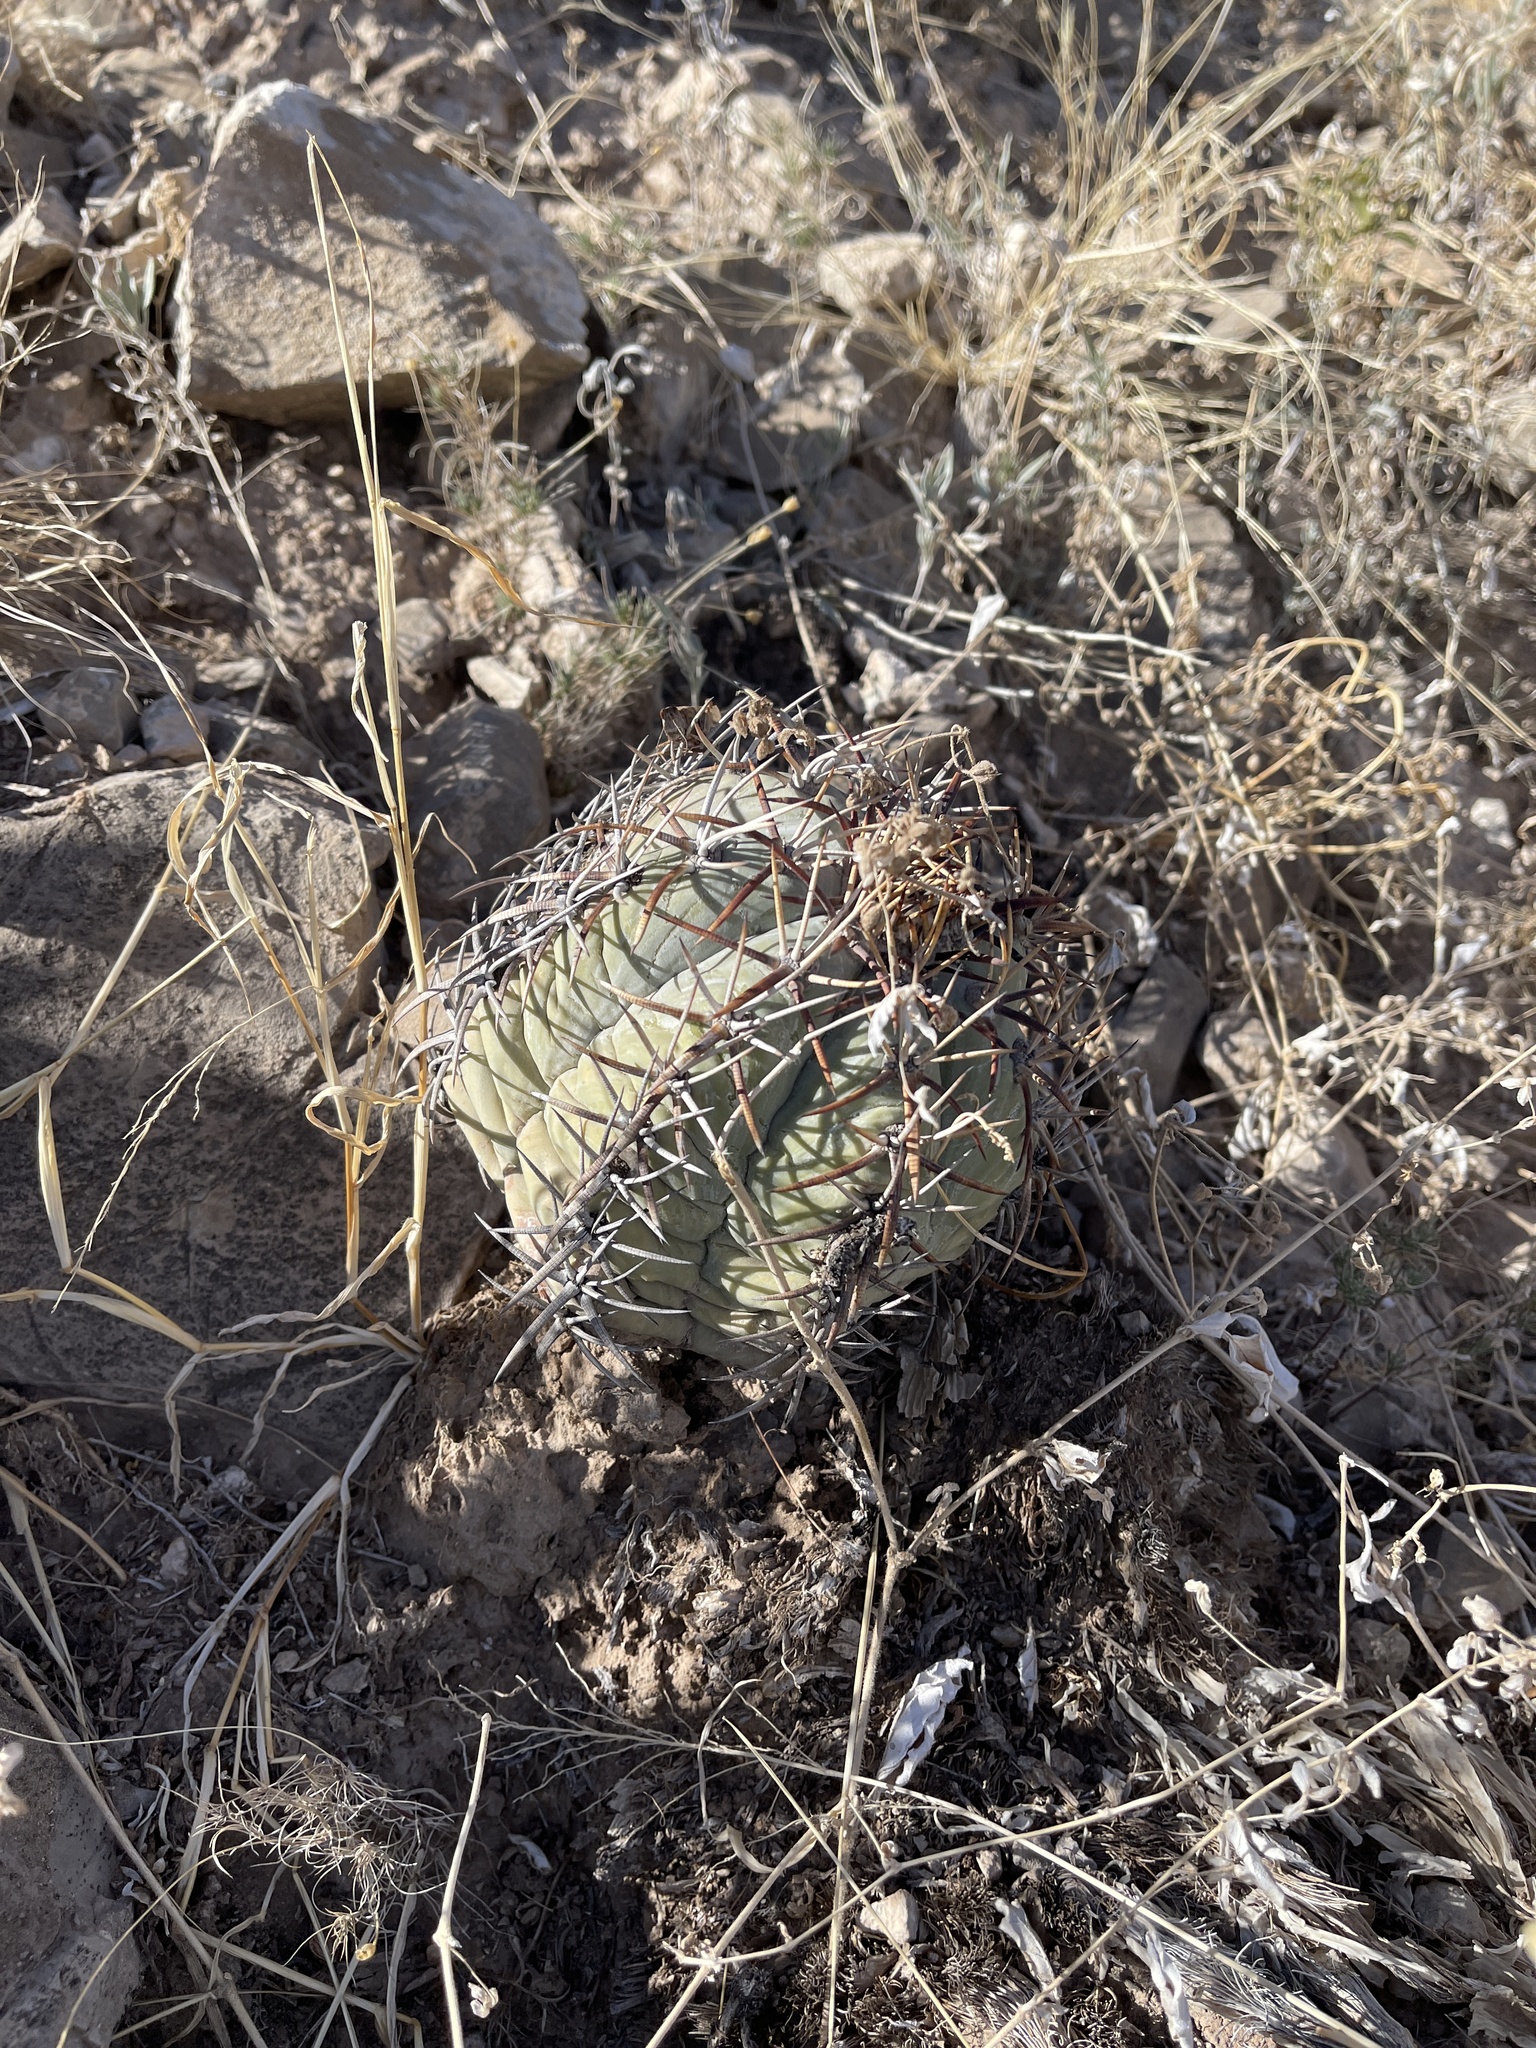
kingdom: Plantae
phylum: Tracheophyta
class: Magnoliopsida
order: Caryophyllales
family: Cactaceae
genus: Echinocactus
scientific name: Echinocactus horizonthalonius
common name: Devilshead
